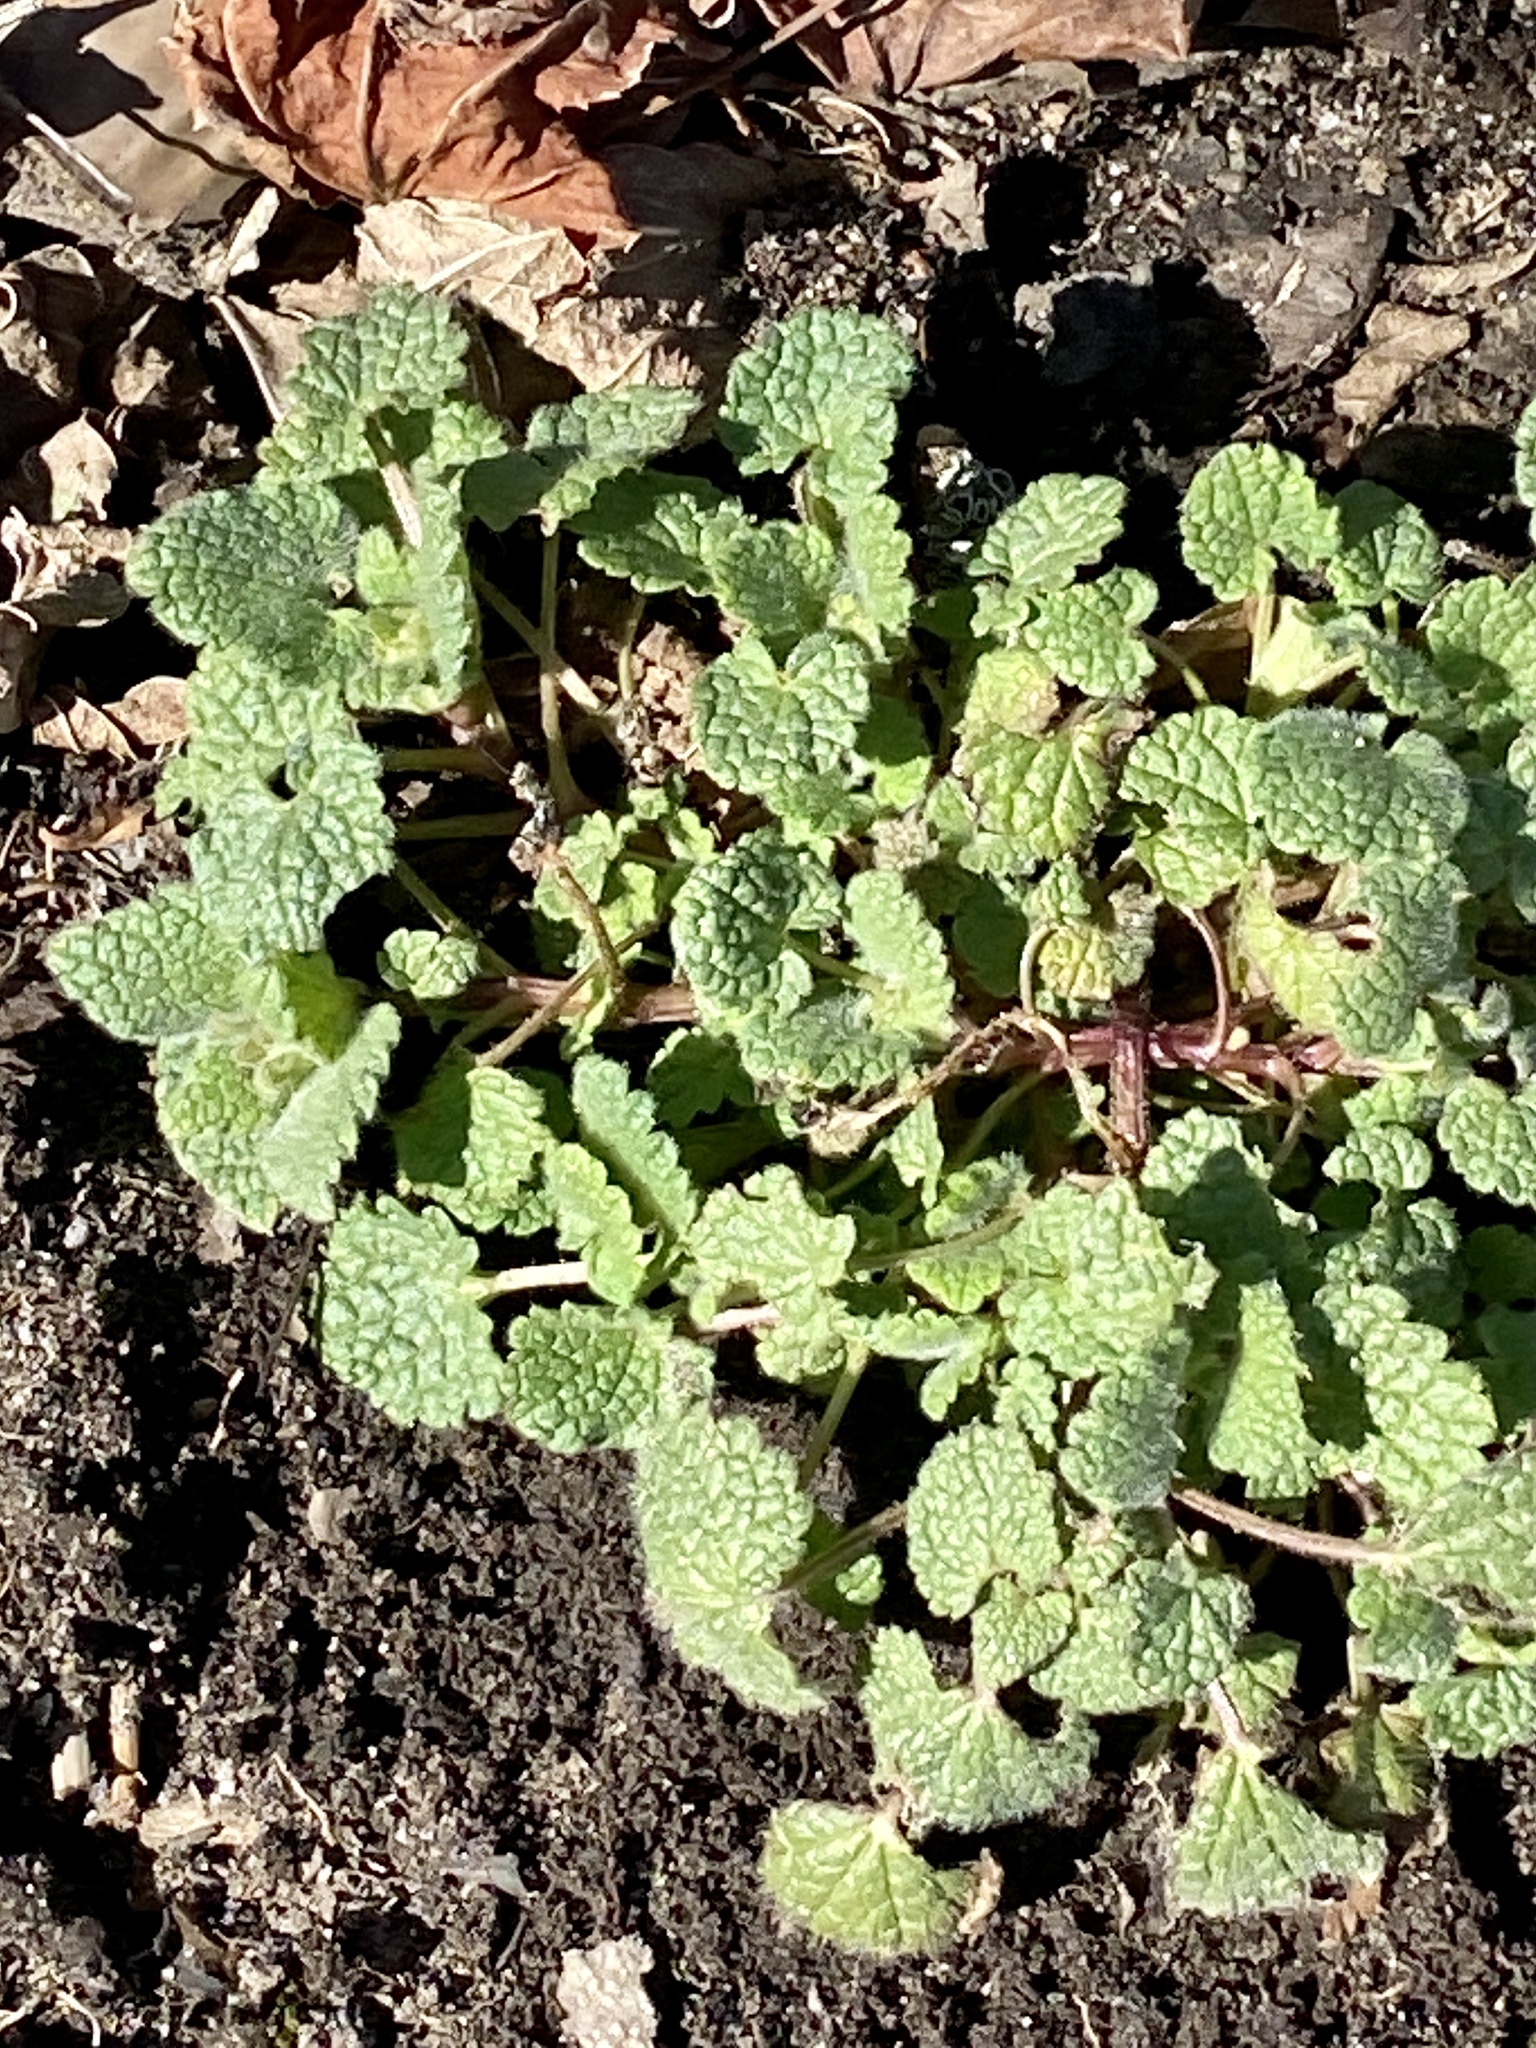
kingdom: Plantae
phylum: Tracheophyta
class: Magnoliopsida
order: Lamiales
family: Lamiaceae
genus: Lamium
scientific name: Lamium purpureum
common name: Red dead-nettle
